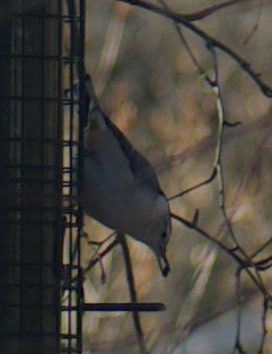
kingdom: Animalia
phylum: Chordata
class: Aves
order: Passeriformes
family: Sittidae
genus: Sitta
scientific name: Sitta carolinensis
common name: White-breasted nuthatch
